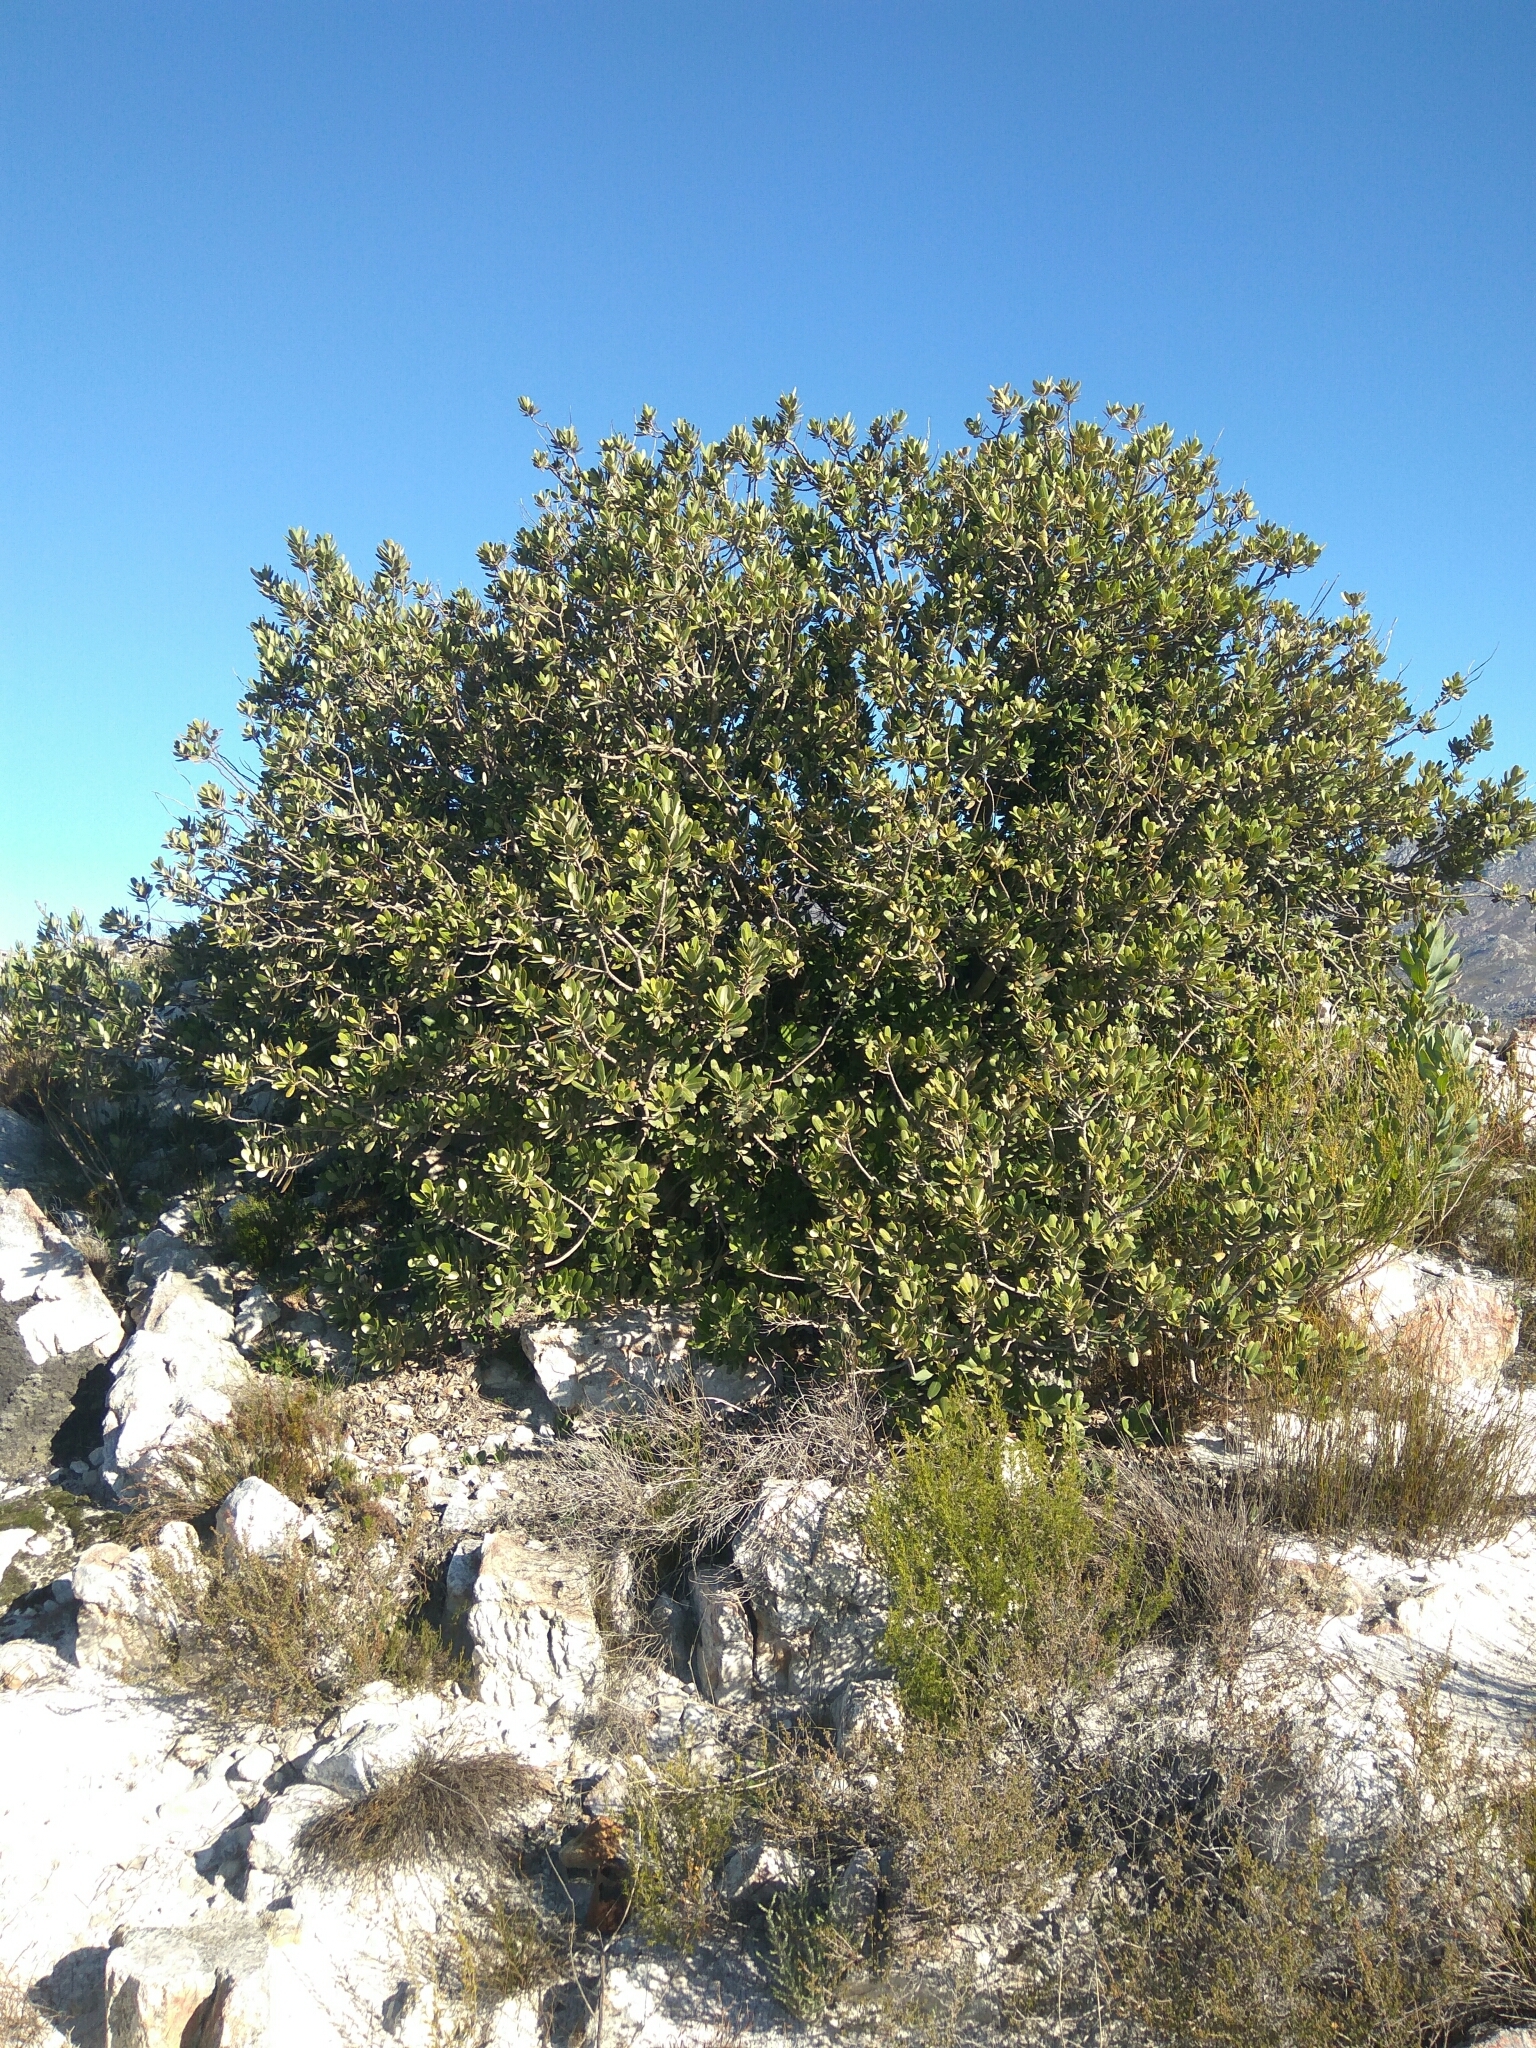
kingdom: Plantae
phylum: Tracheophyta
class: Magnoliopsida
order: Sapindales
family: Anacardiaceae
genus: Heeria
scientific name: Heeria argentea
